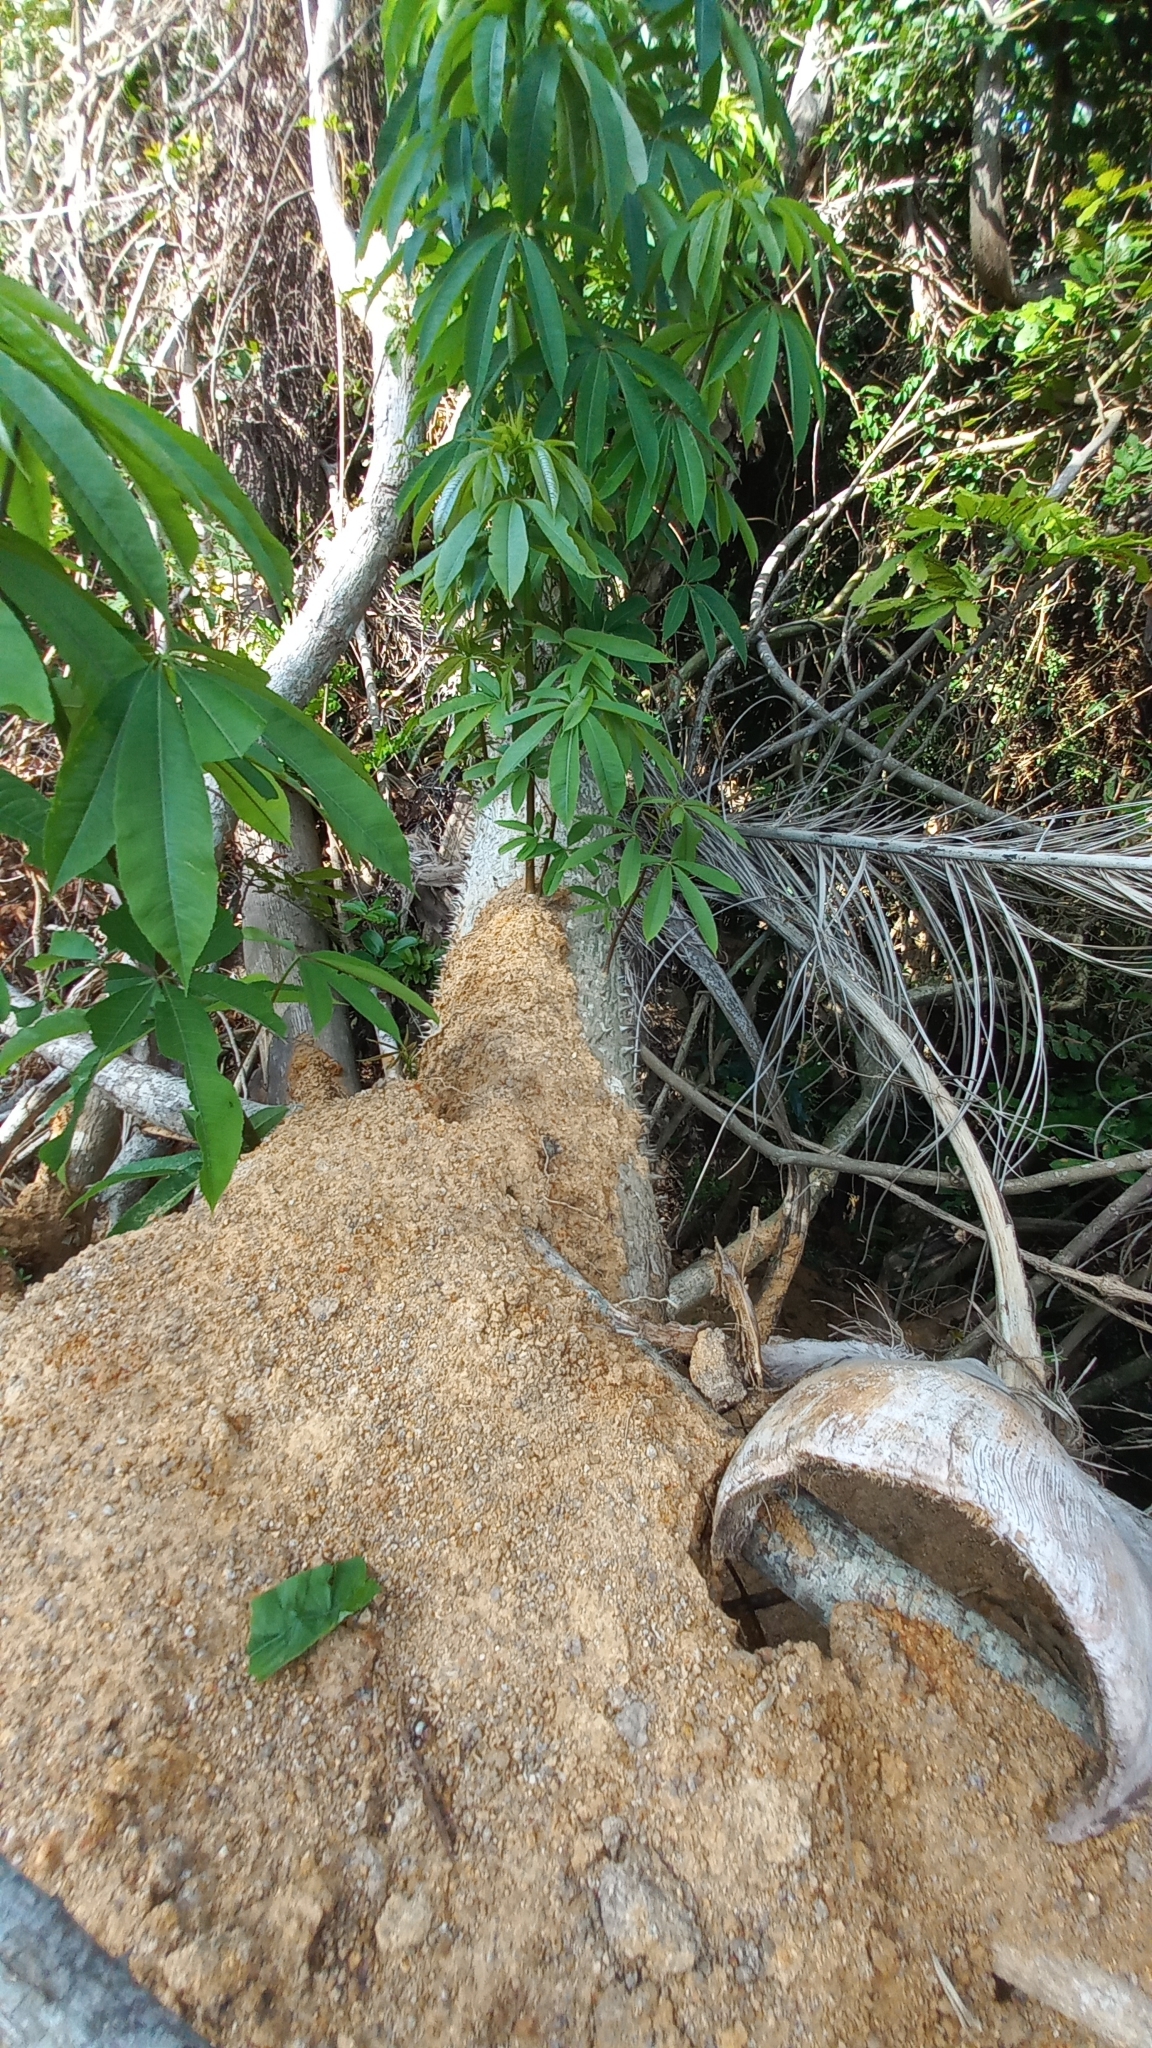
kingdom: Plantae
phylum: Tracheophyta
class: Magnoliopsida
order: Malvales
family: Malvaceae
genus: Ceiba
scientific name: Ceiba speciosa
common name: Silk-floss tree
